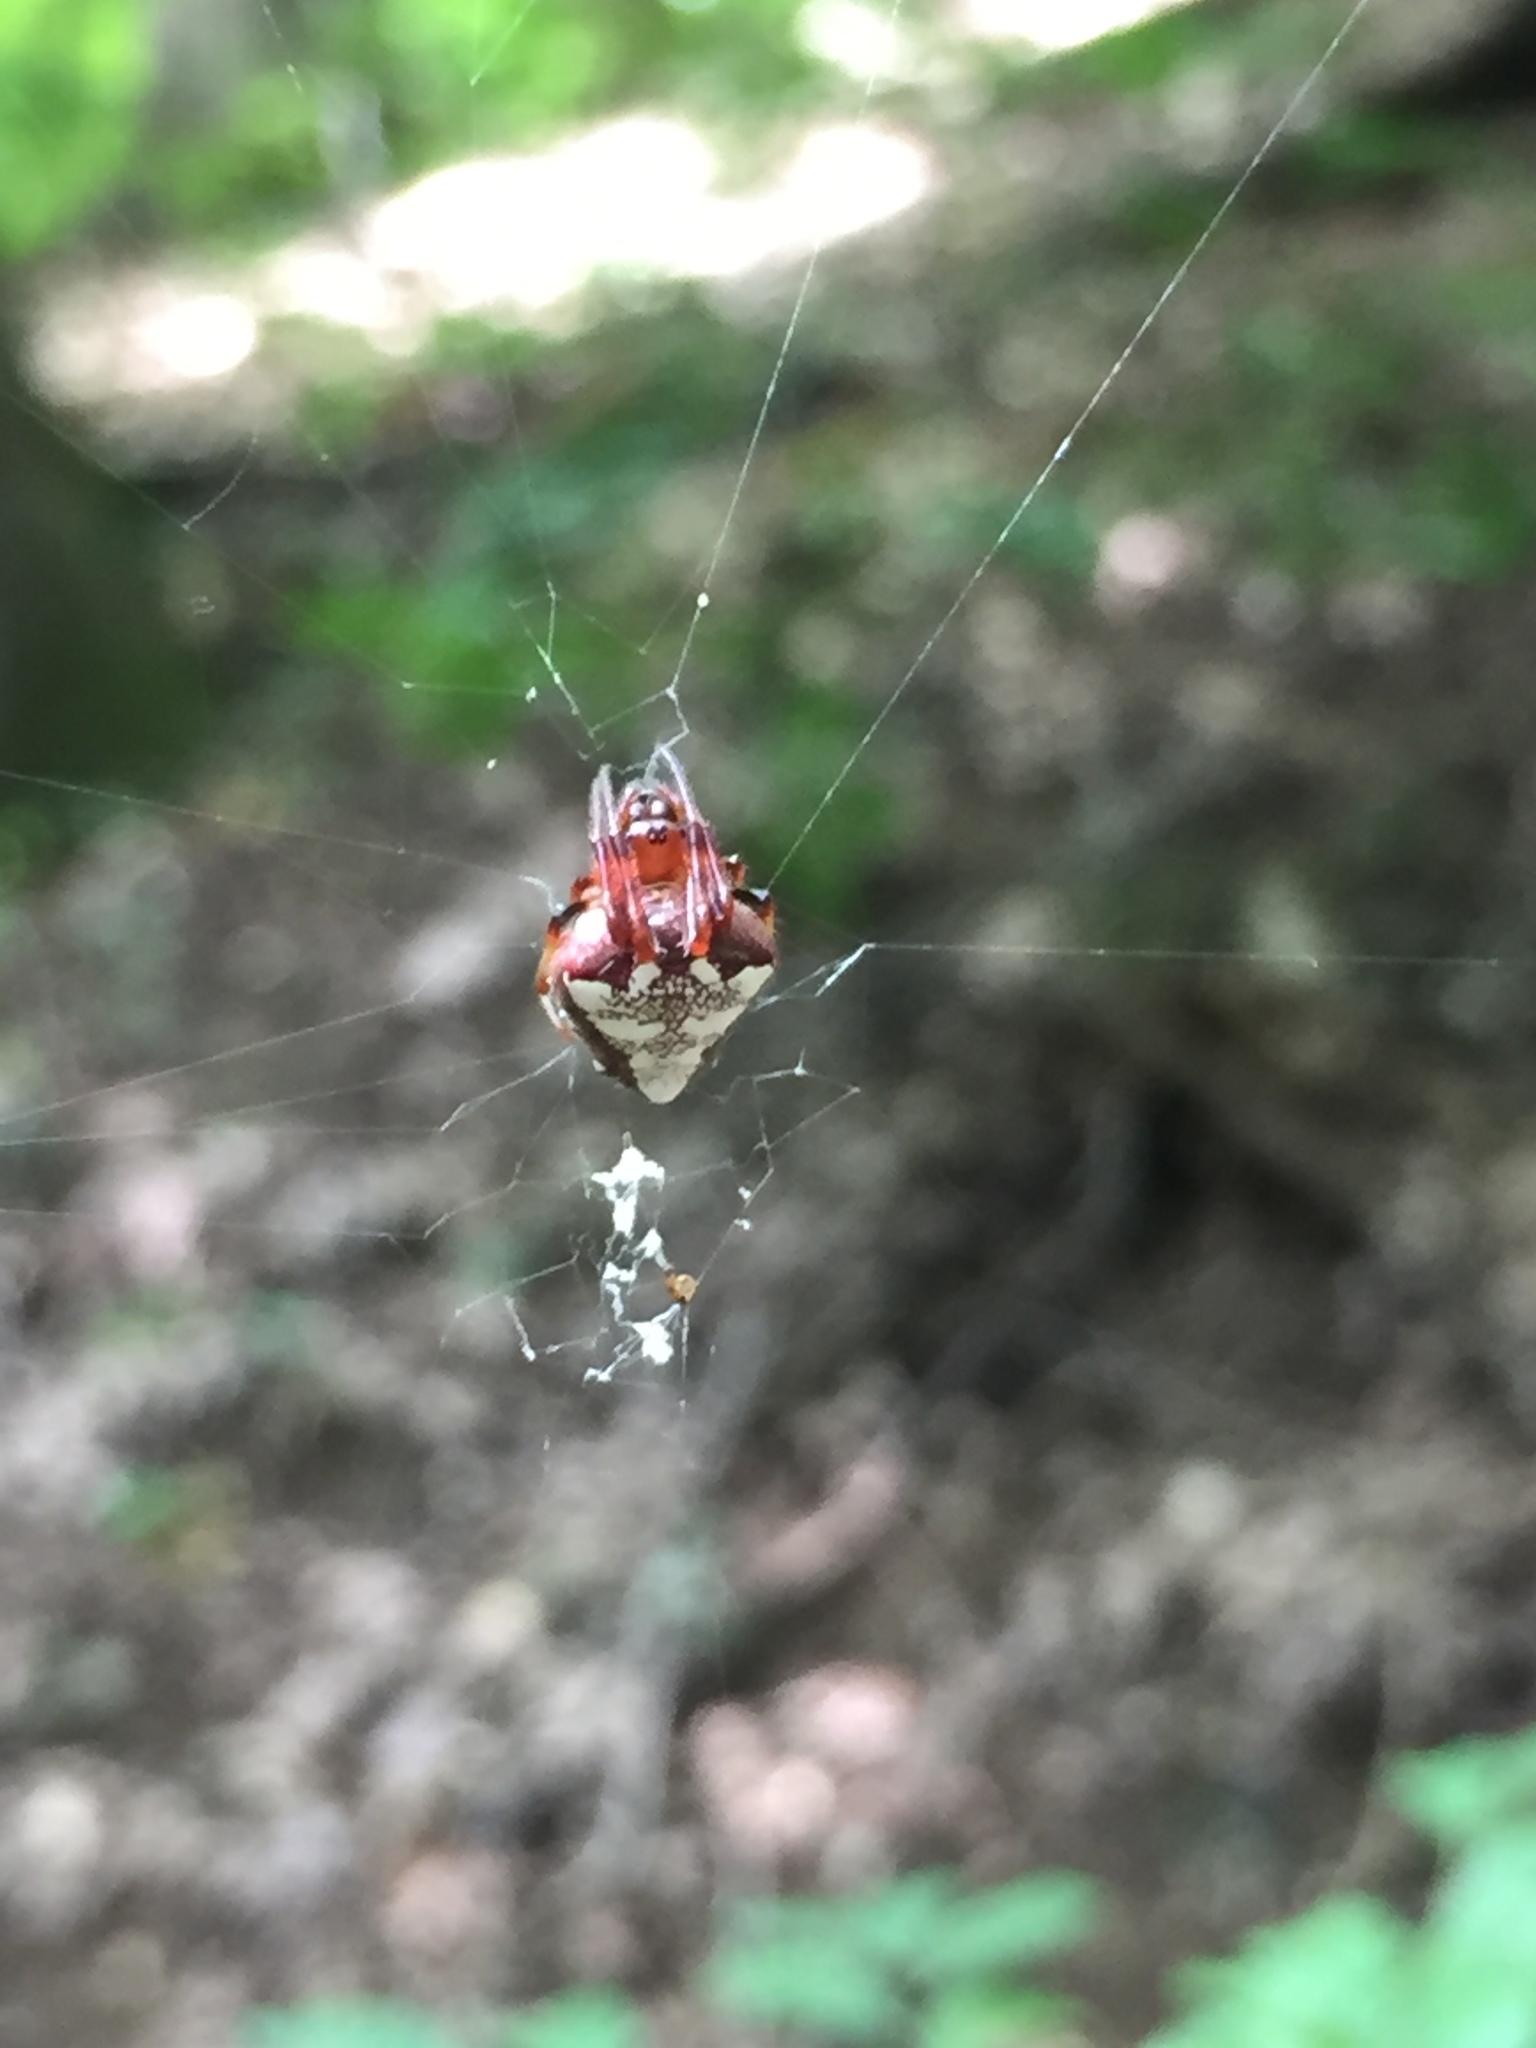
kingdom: Animalia
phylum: Arthropoda
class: Arachnida
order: Araneae
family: Araneidae
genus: Verrucosa
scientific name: Verrucosa arenata
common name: Orb weavers
